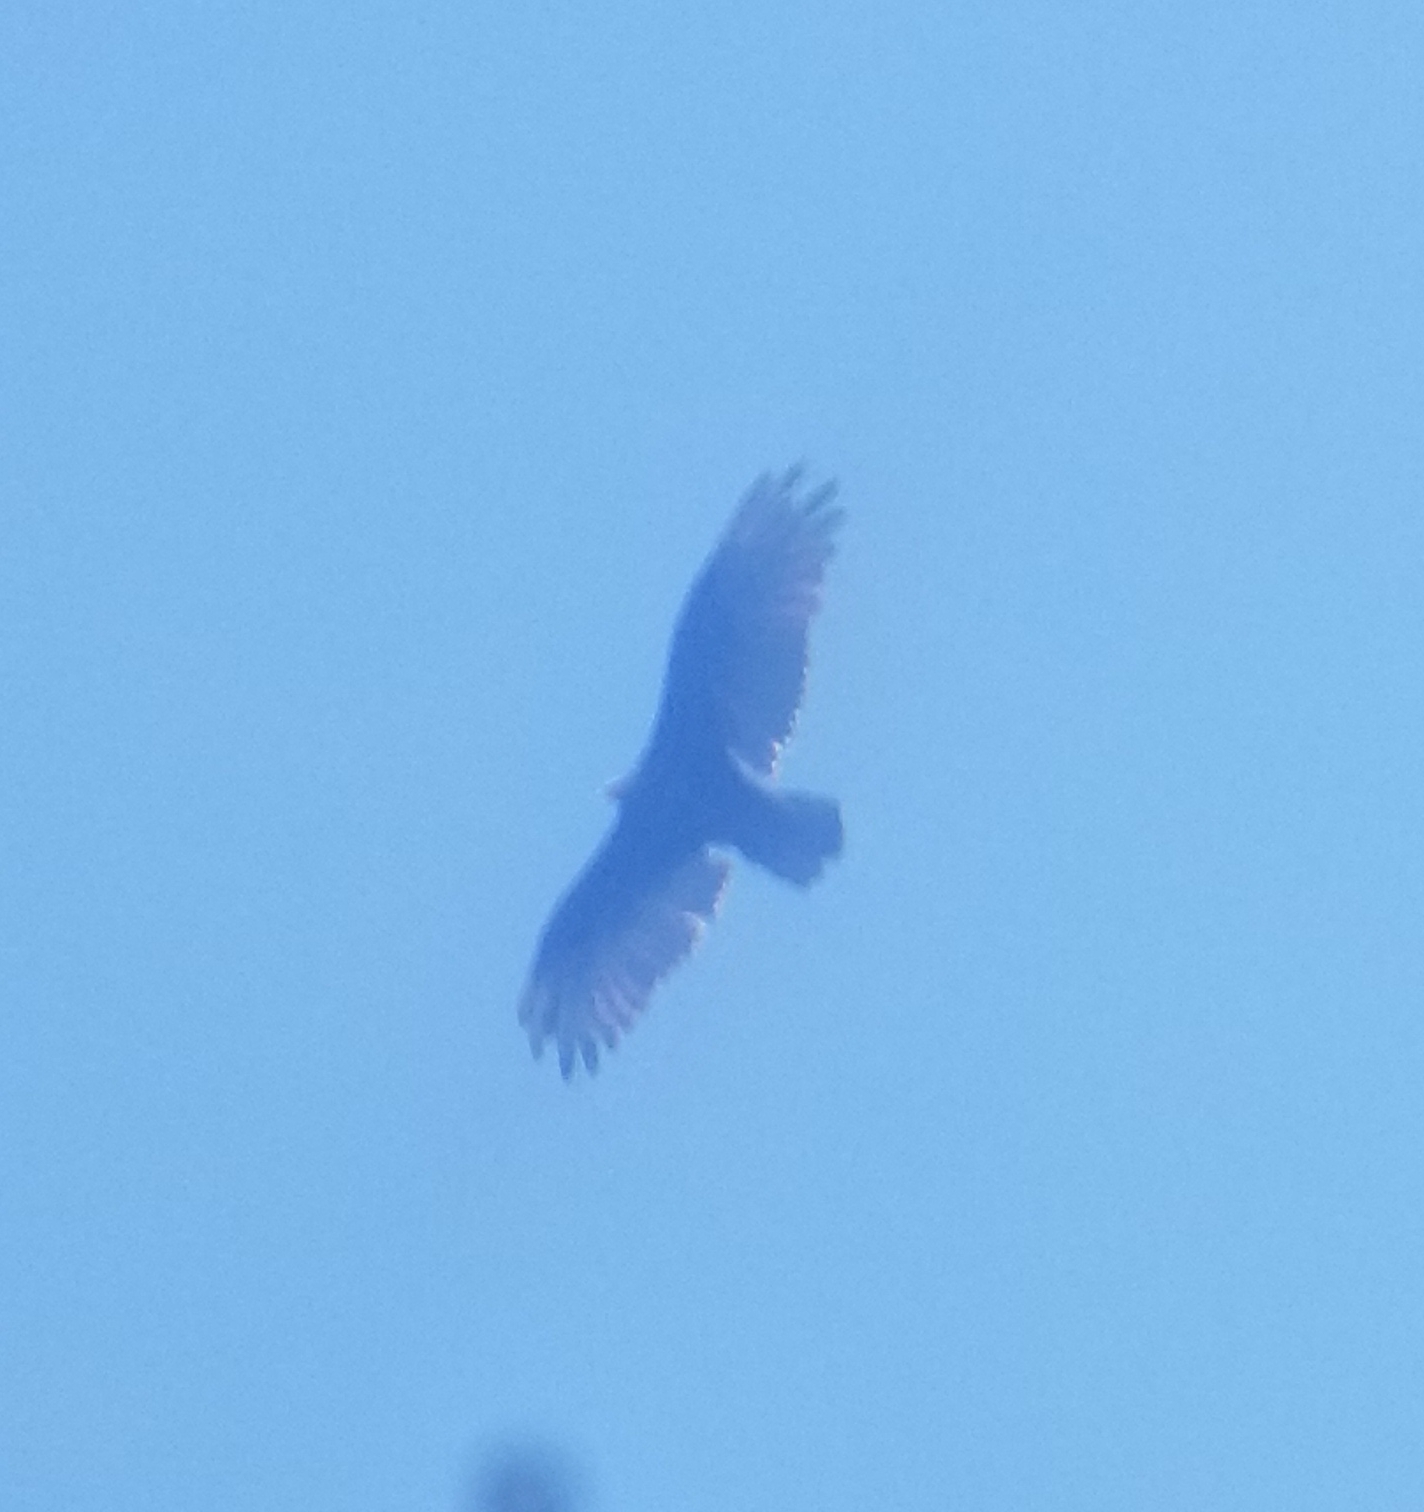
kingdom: Animalia
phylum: Chordata
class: Aves
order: Accipitriformes
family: Cathartidae
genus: Cathartes
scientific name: Cathartes aura
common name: Turkey vulture
